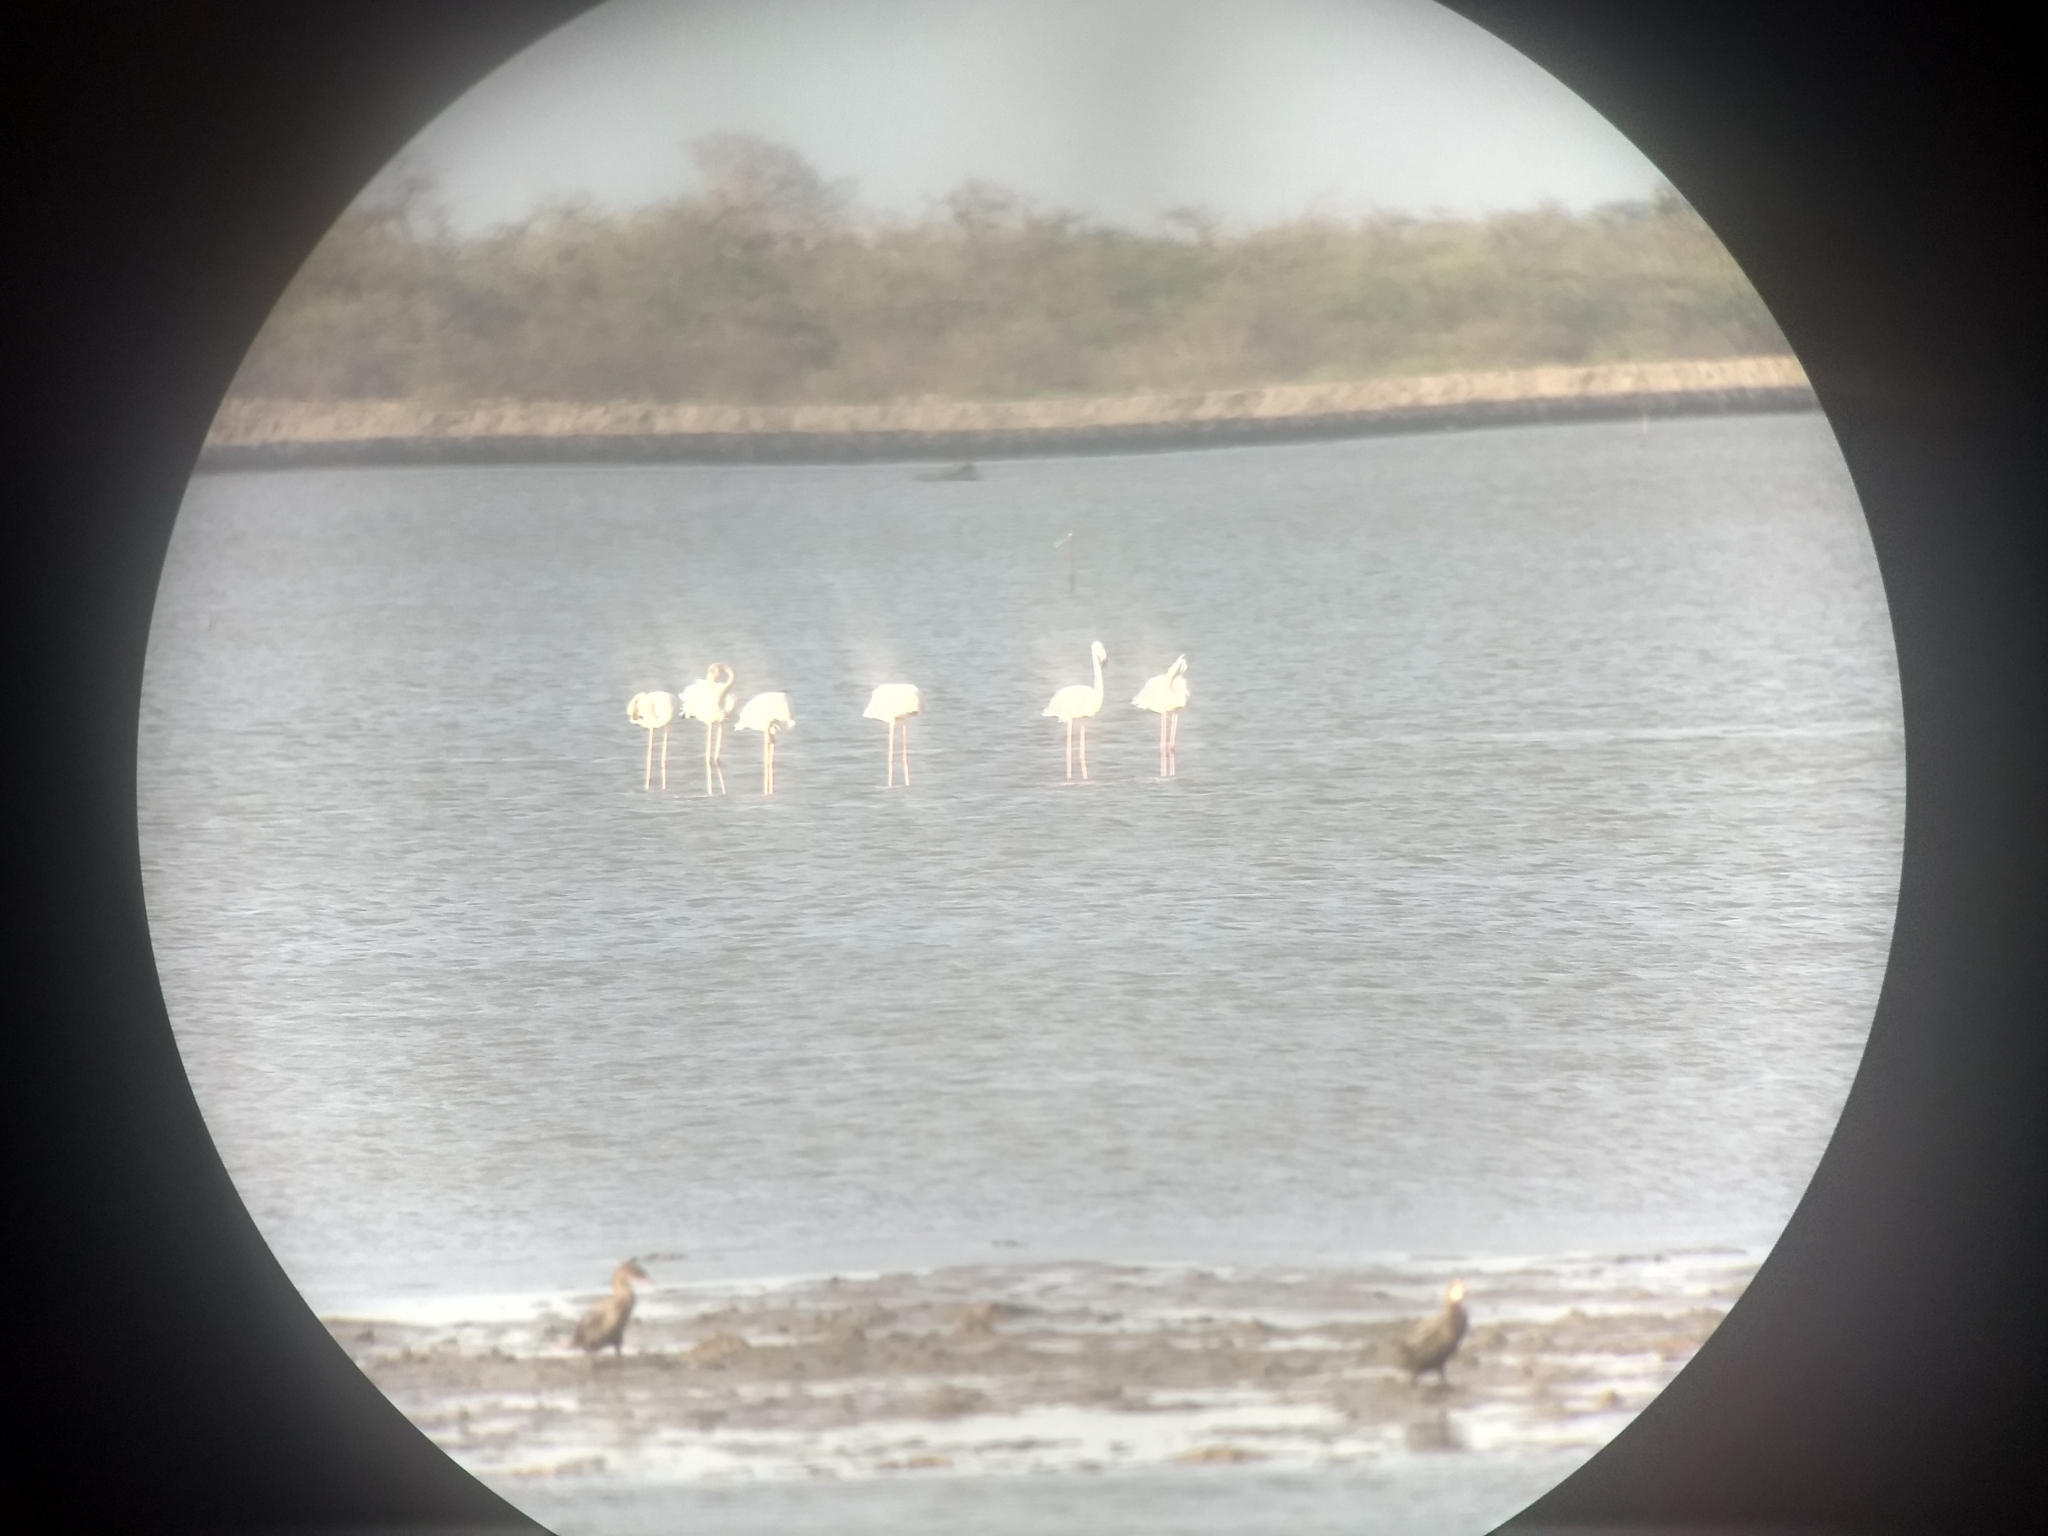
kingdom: Animalia
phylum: Chordata
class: Aves
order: Phoenicopteriformes
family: Phoenicopteridae
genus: Phoenicopterus
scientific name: Phoenicopterus roseus
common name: Greater flamingo
